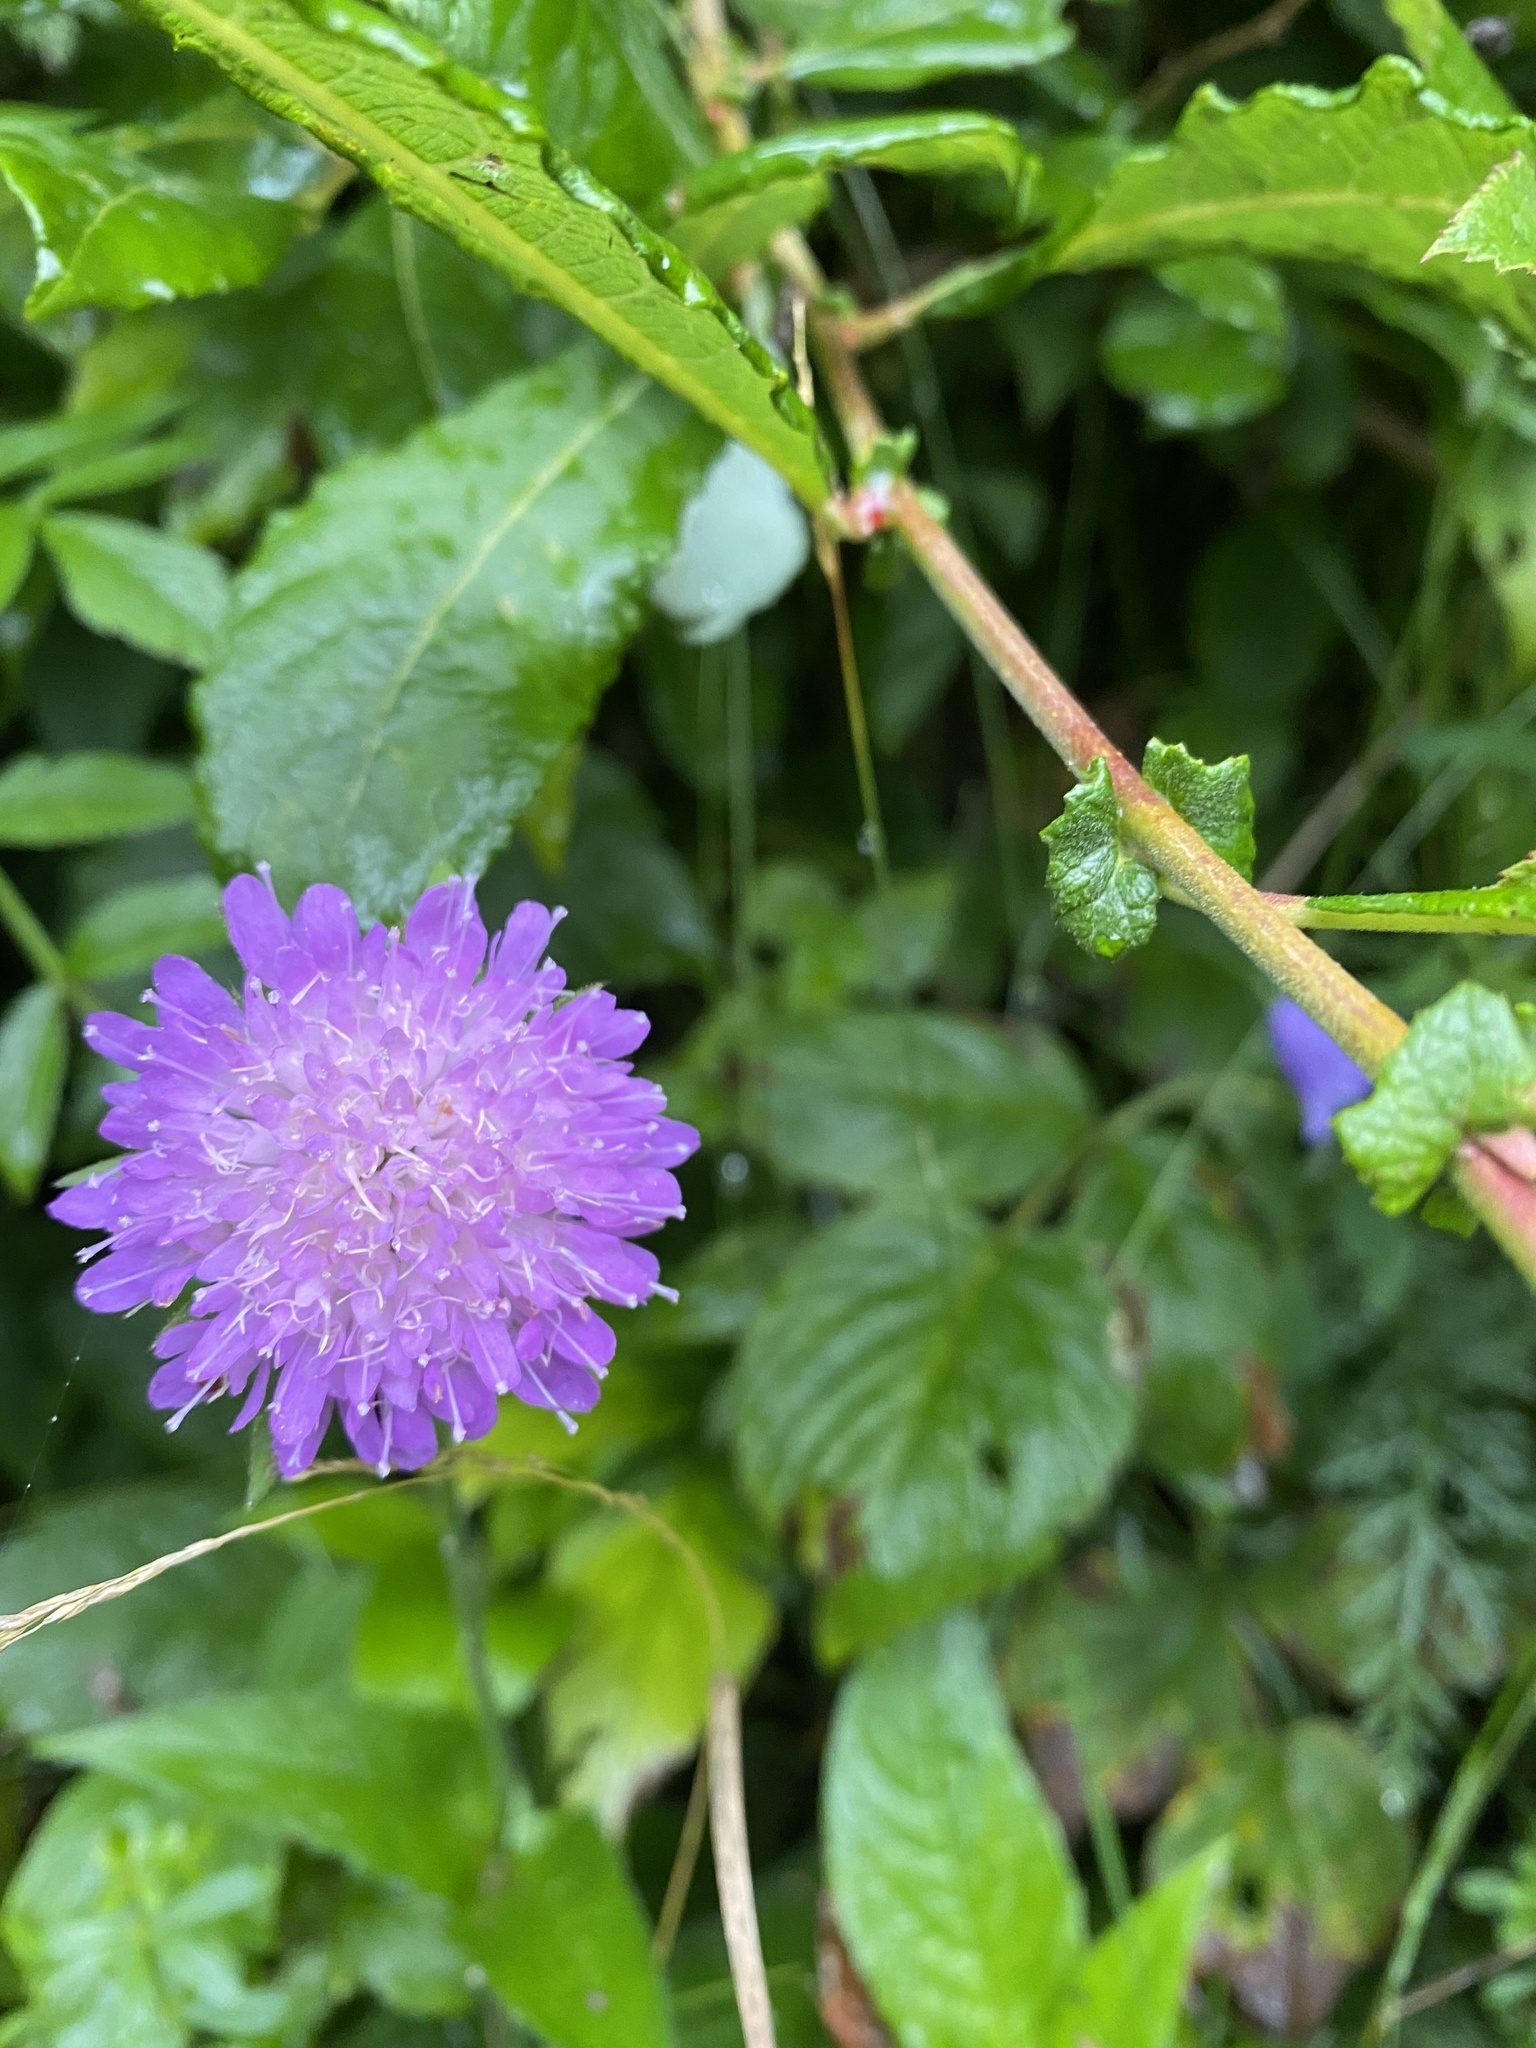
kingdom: Plantae
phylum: Tracheophyta
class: Magnoliopsida
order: Dipsacales
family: Caprifoliaceae
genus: Knautia
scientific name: Knautia dipsacifolia
